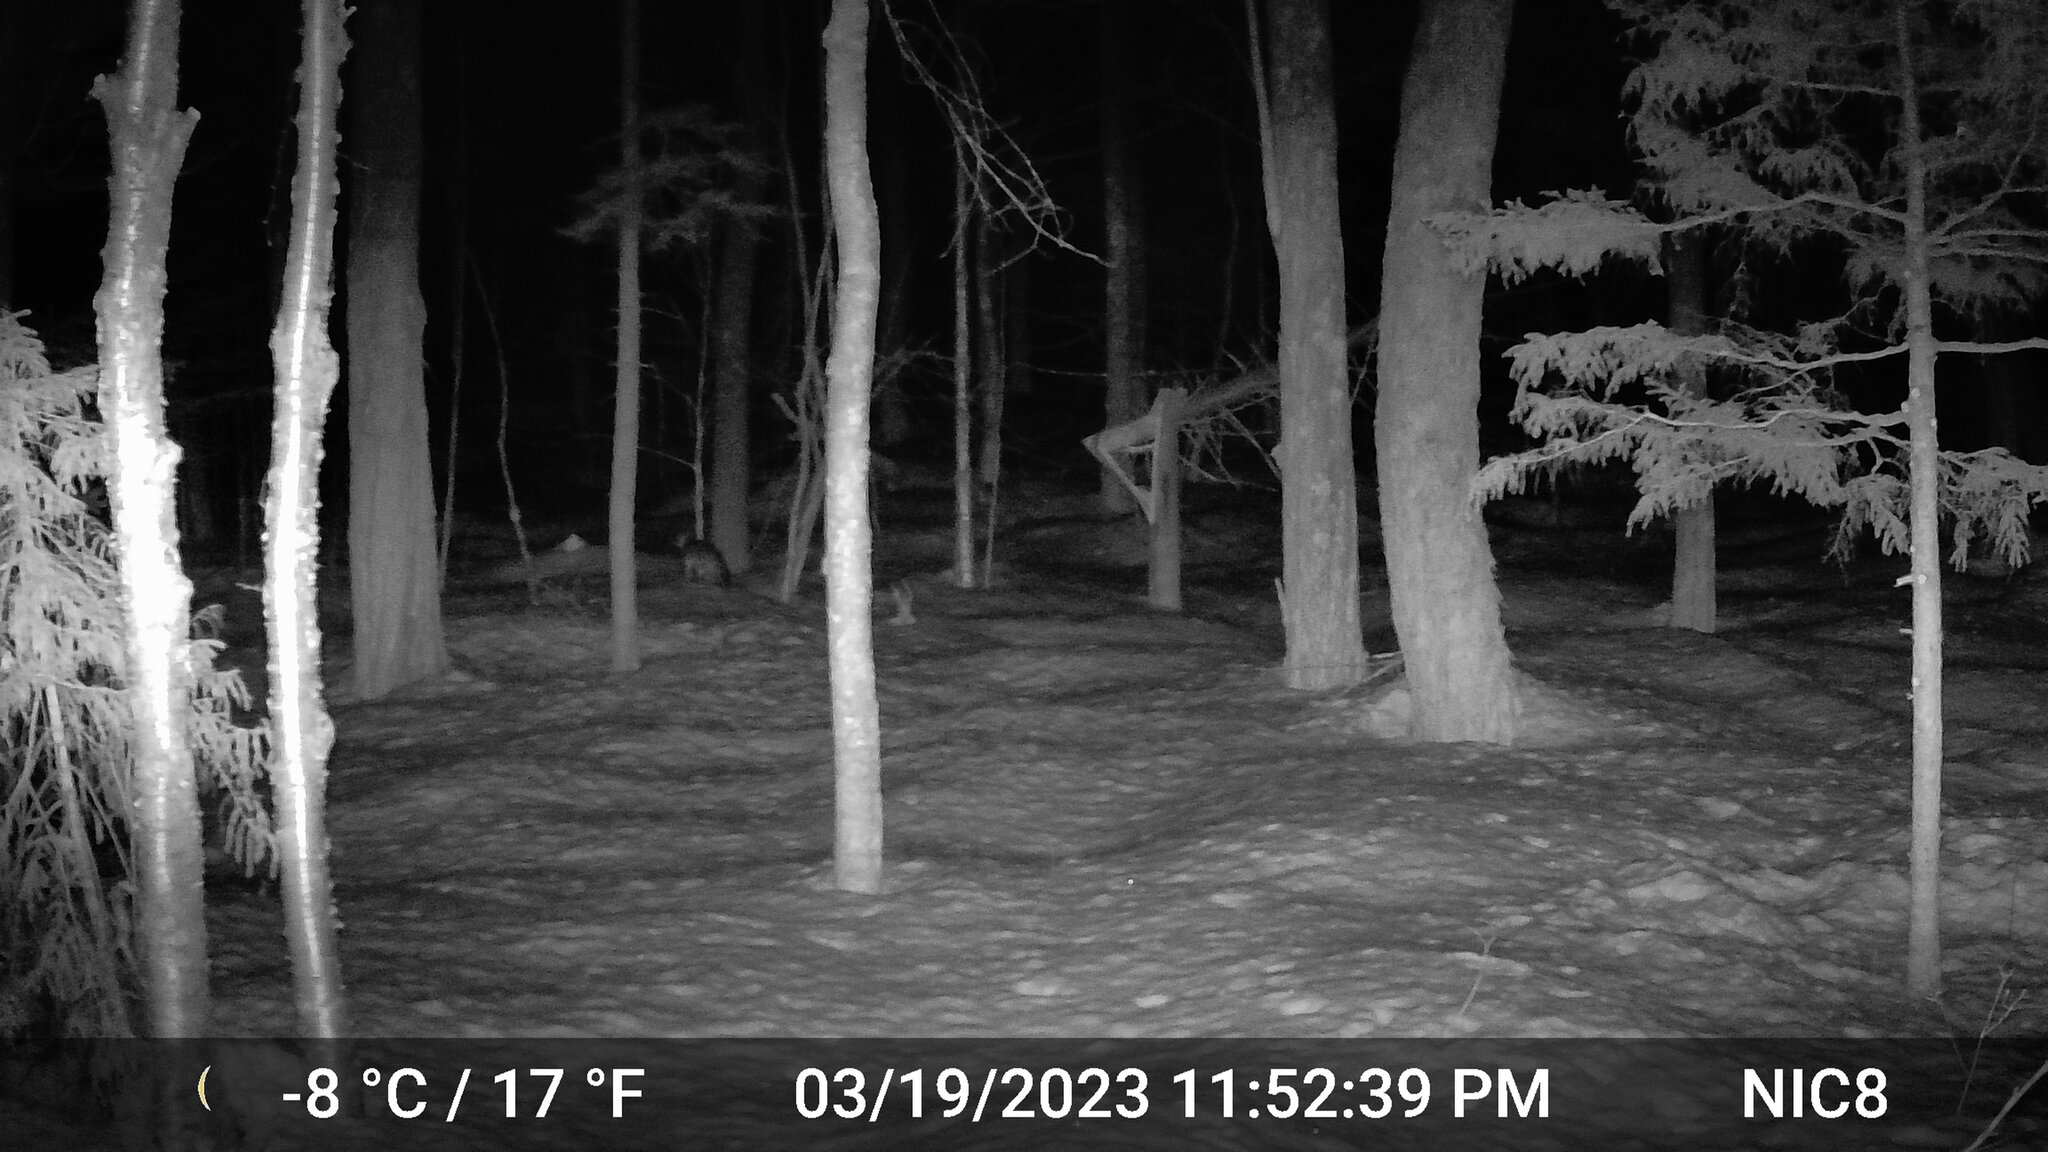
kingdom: Animalia
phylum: Chordata
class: Mammalia
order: Carnivora
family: Canidae
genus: Urocyon
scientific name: Urocyon cinereoargenteus
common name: Gray fox
